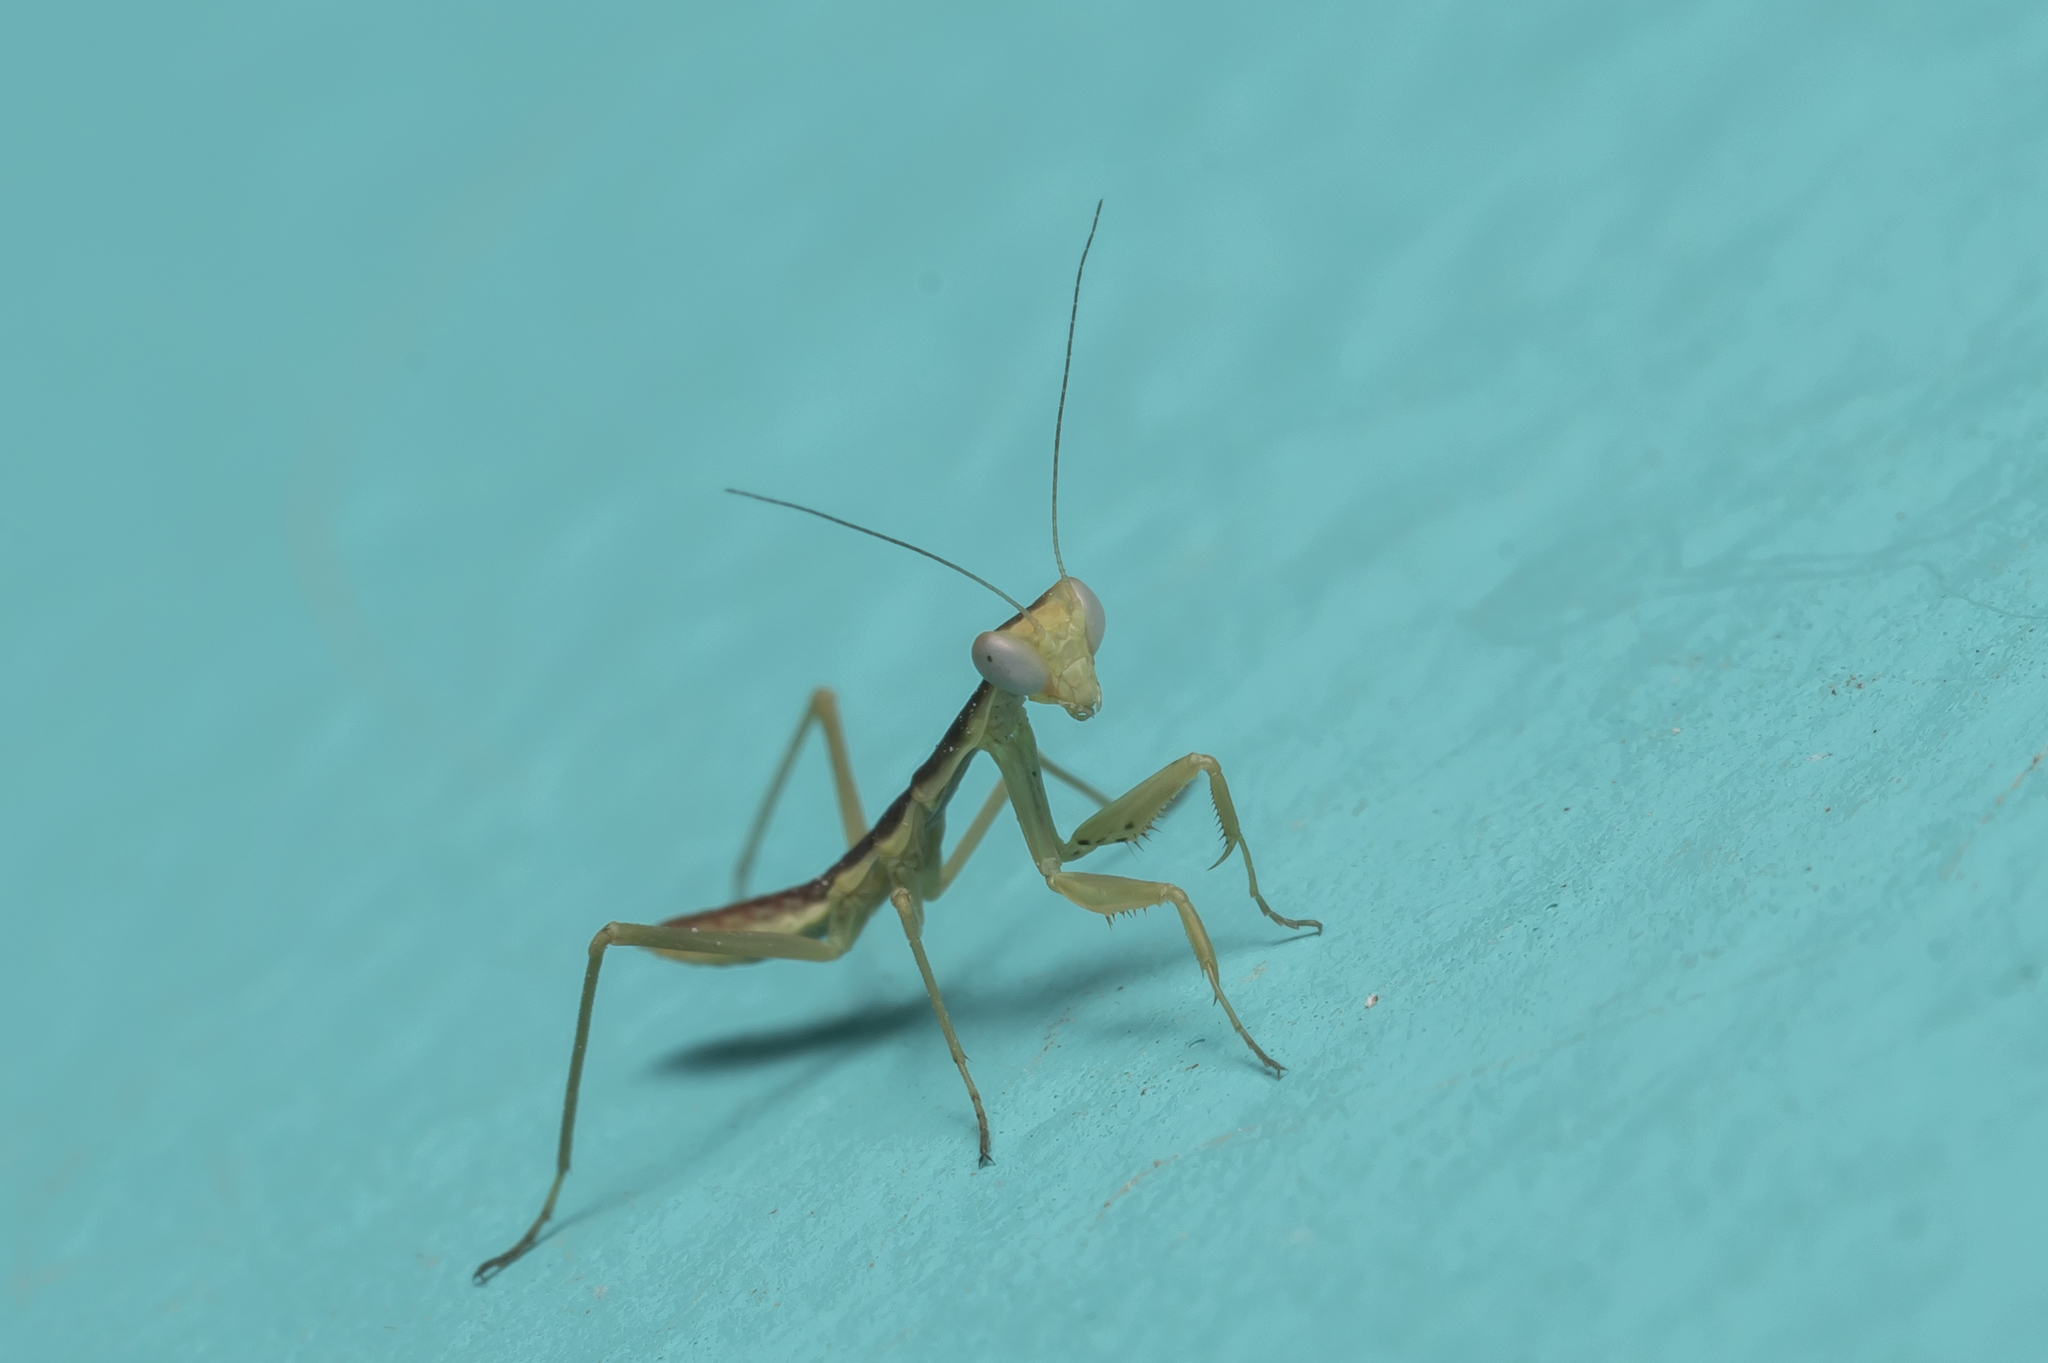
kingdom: Animalia
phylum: Arthropoda
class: Insecta
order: Mantodea
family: Eremiaphilidae
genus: Iris
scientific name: Iris oratoria
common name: Mediterranean mantis
